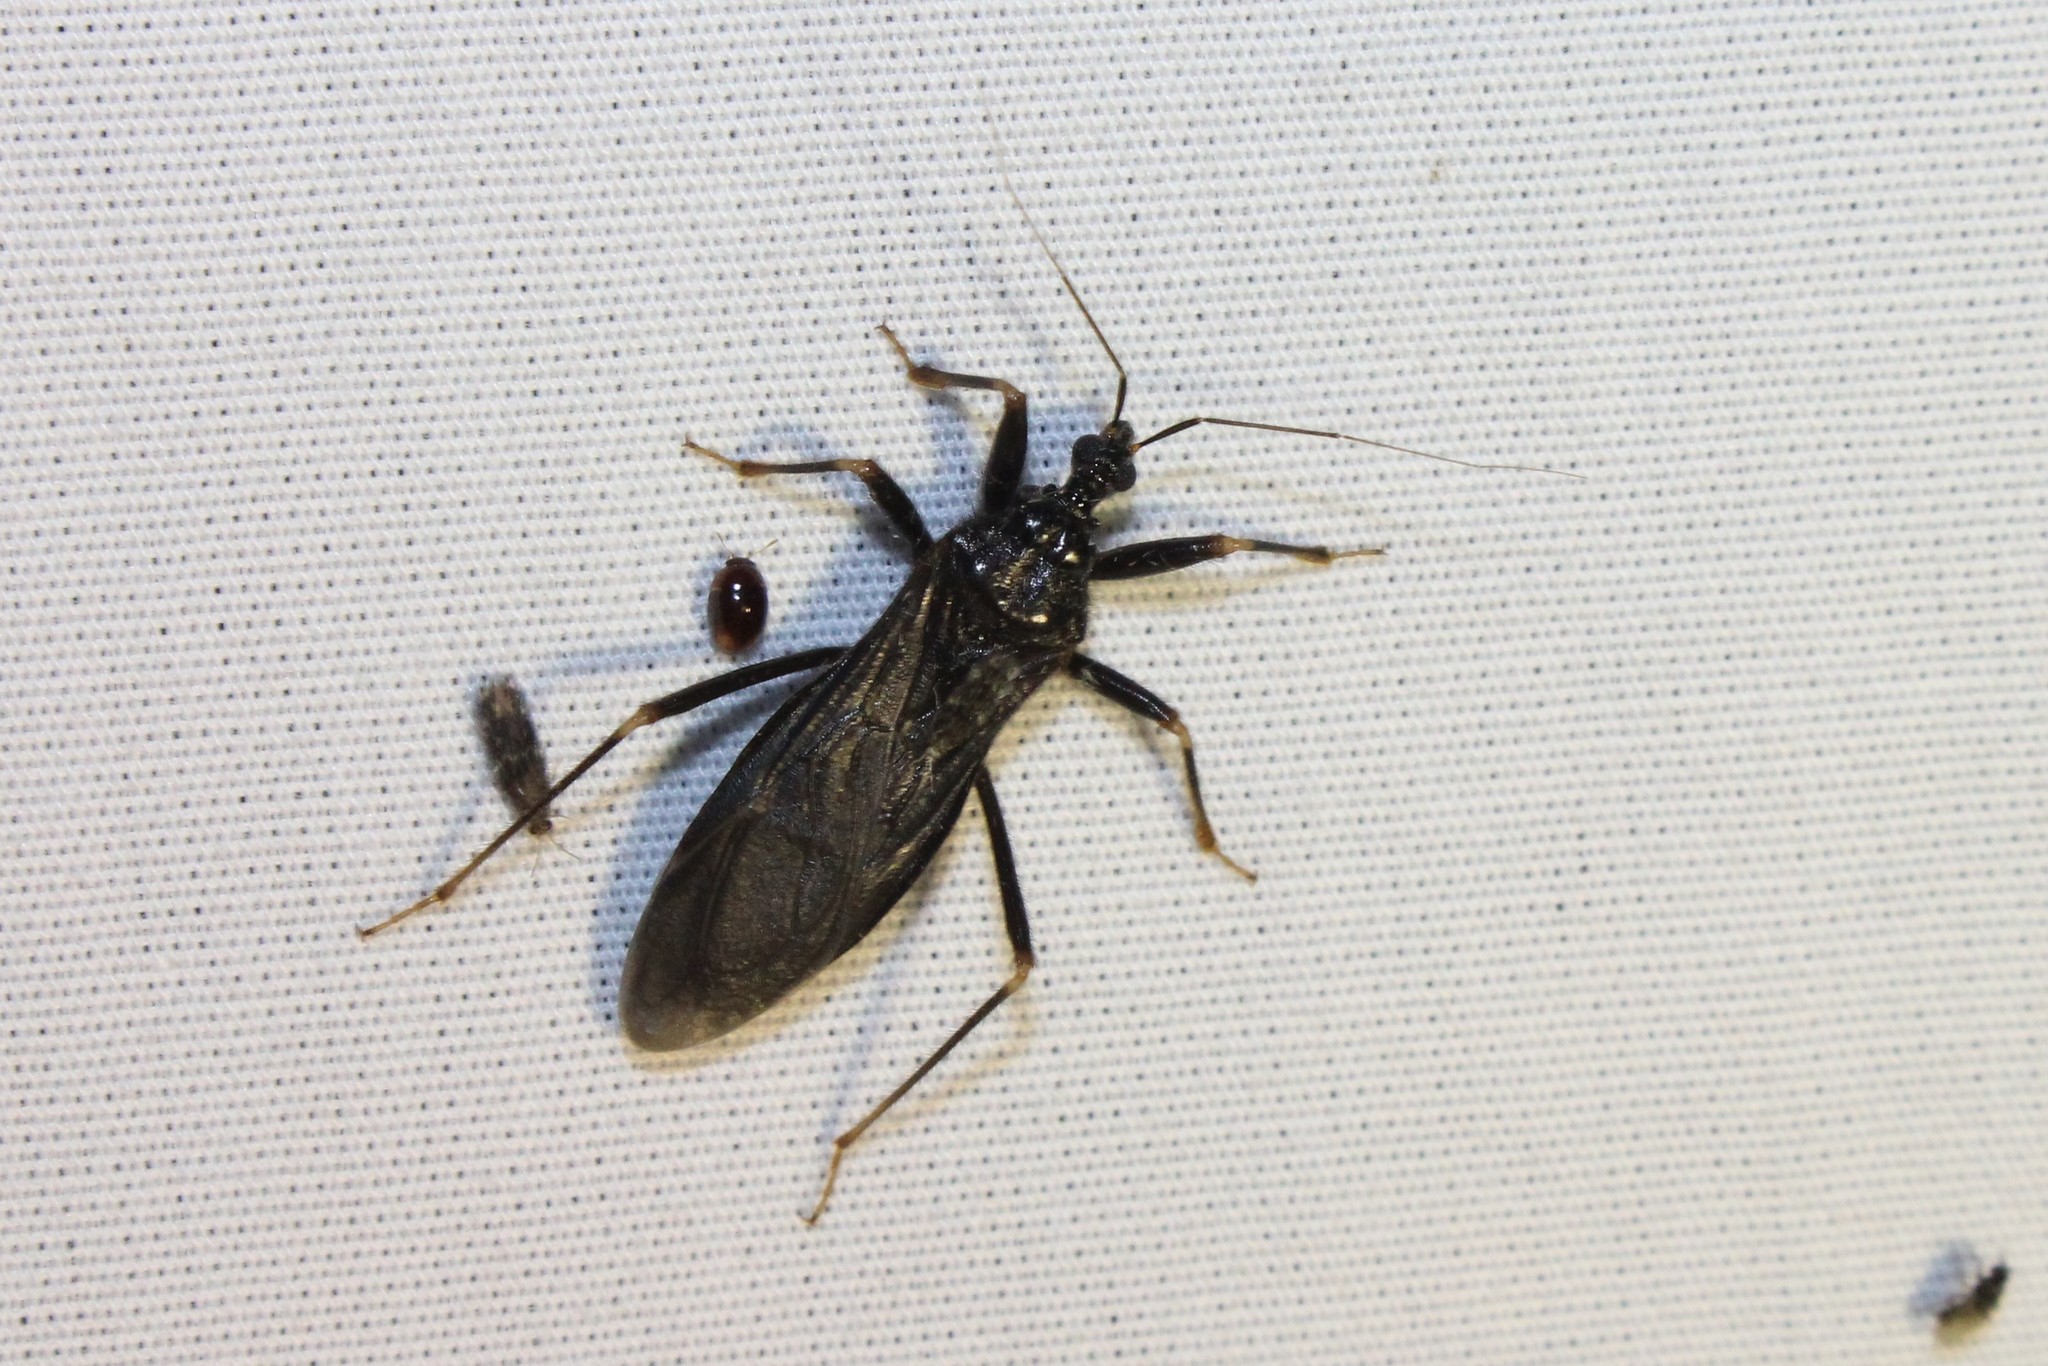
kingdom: Animalia
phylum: Arthropoda
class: Insecta
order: Hemiptera
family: Reduviidae
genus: Reduvius
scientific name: Reduvius personatus
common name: Masked hunter
